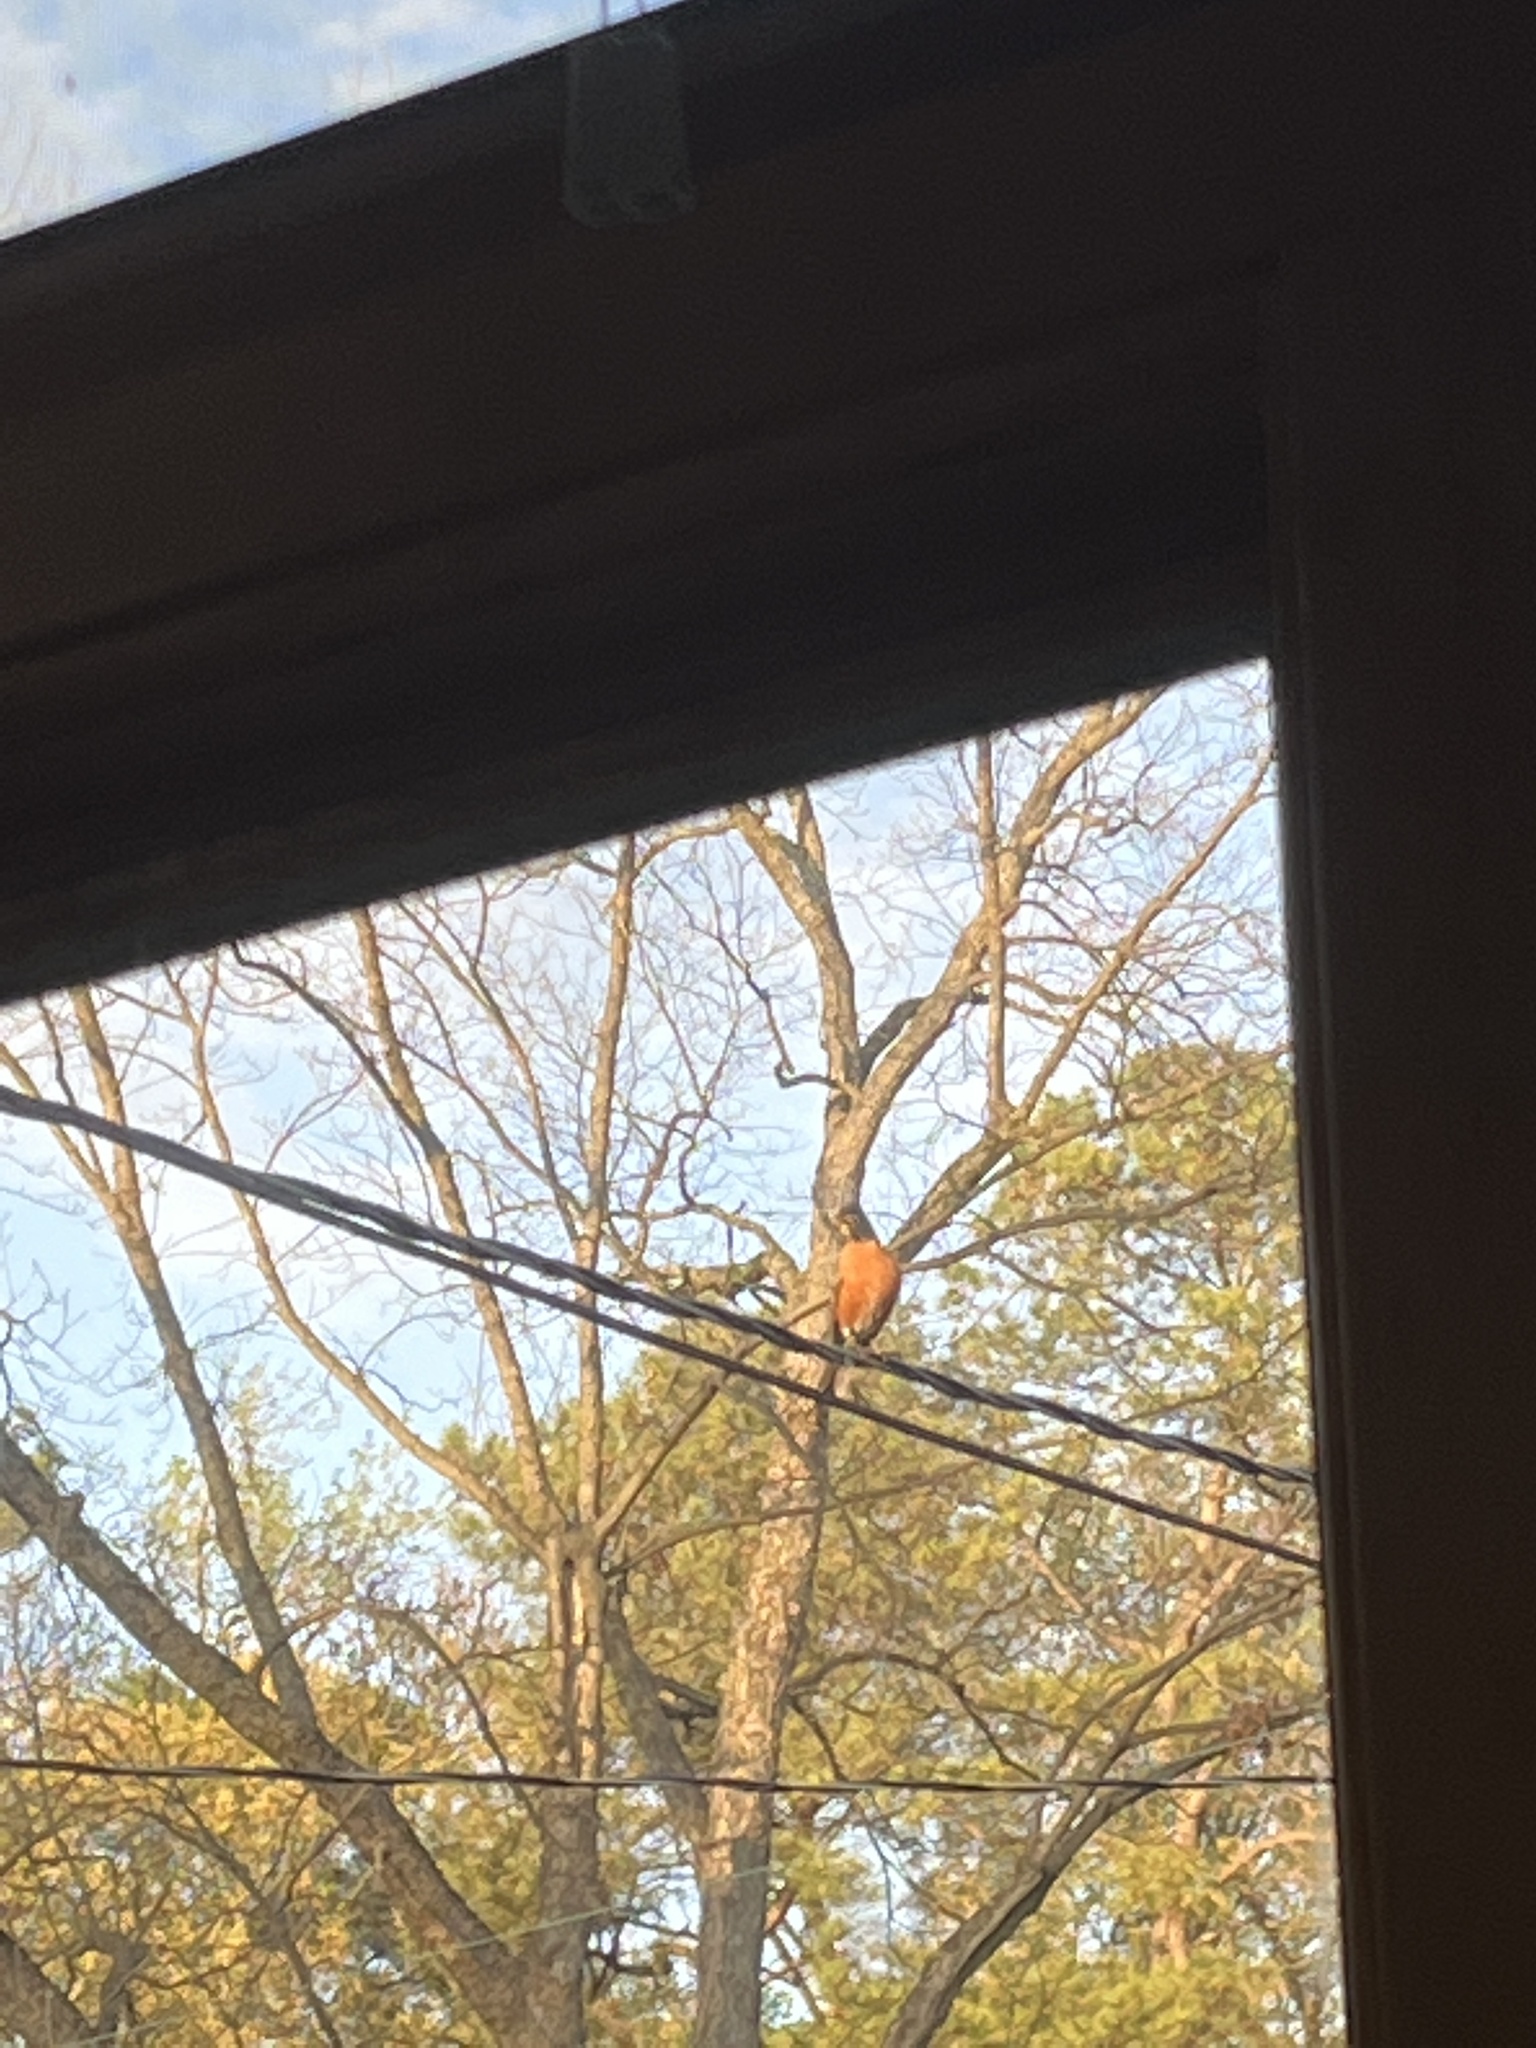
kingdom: Animalia
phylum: Chordata
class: Aves
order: Passeriformes
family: Turdidae
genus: Turdus
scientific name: Turdus migratorius
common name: American robin
